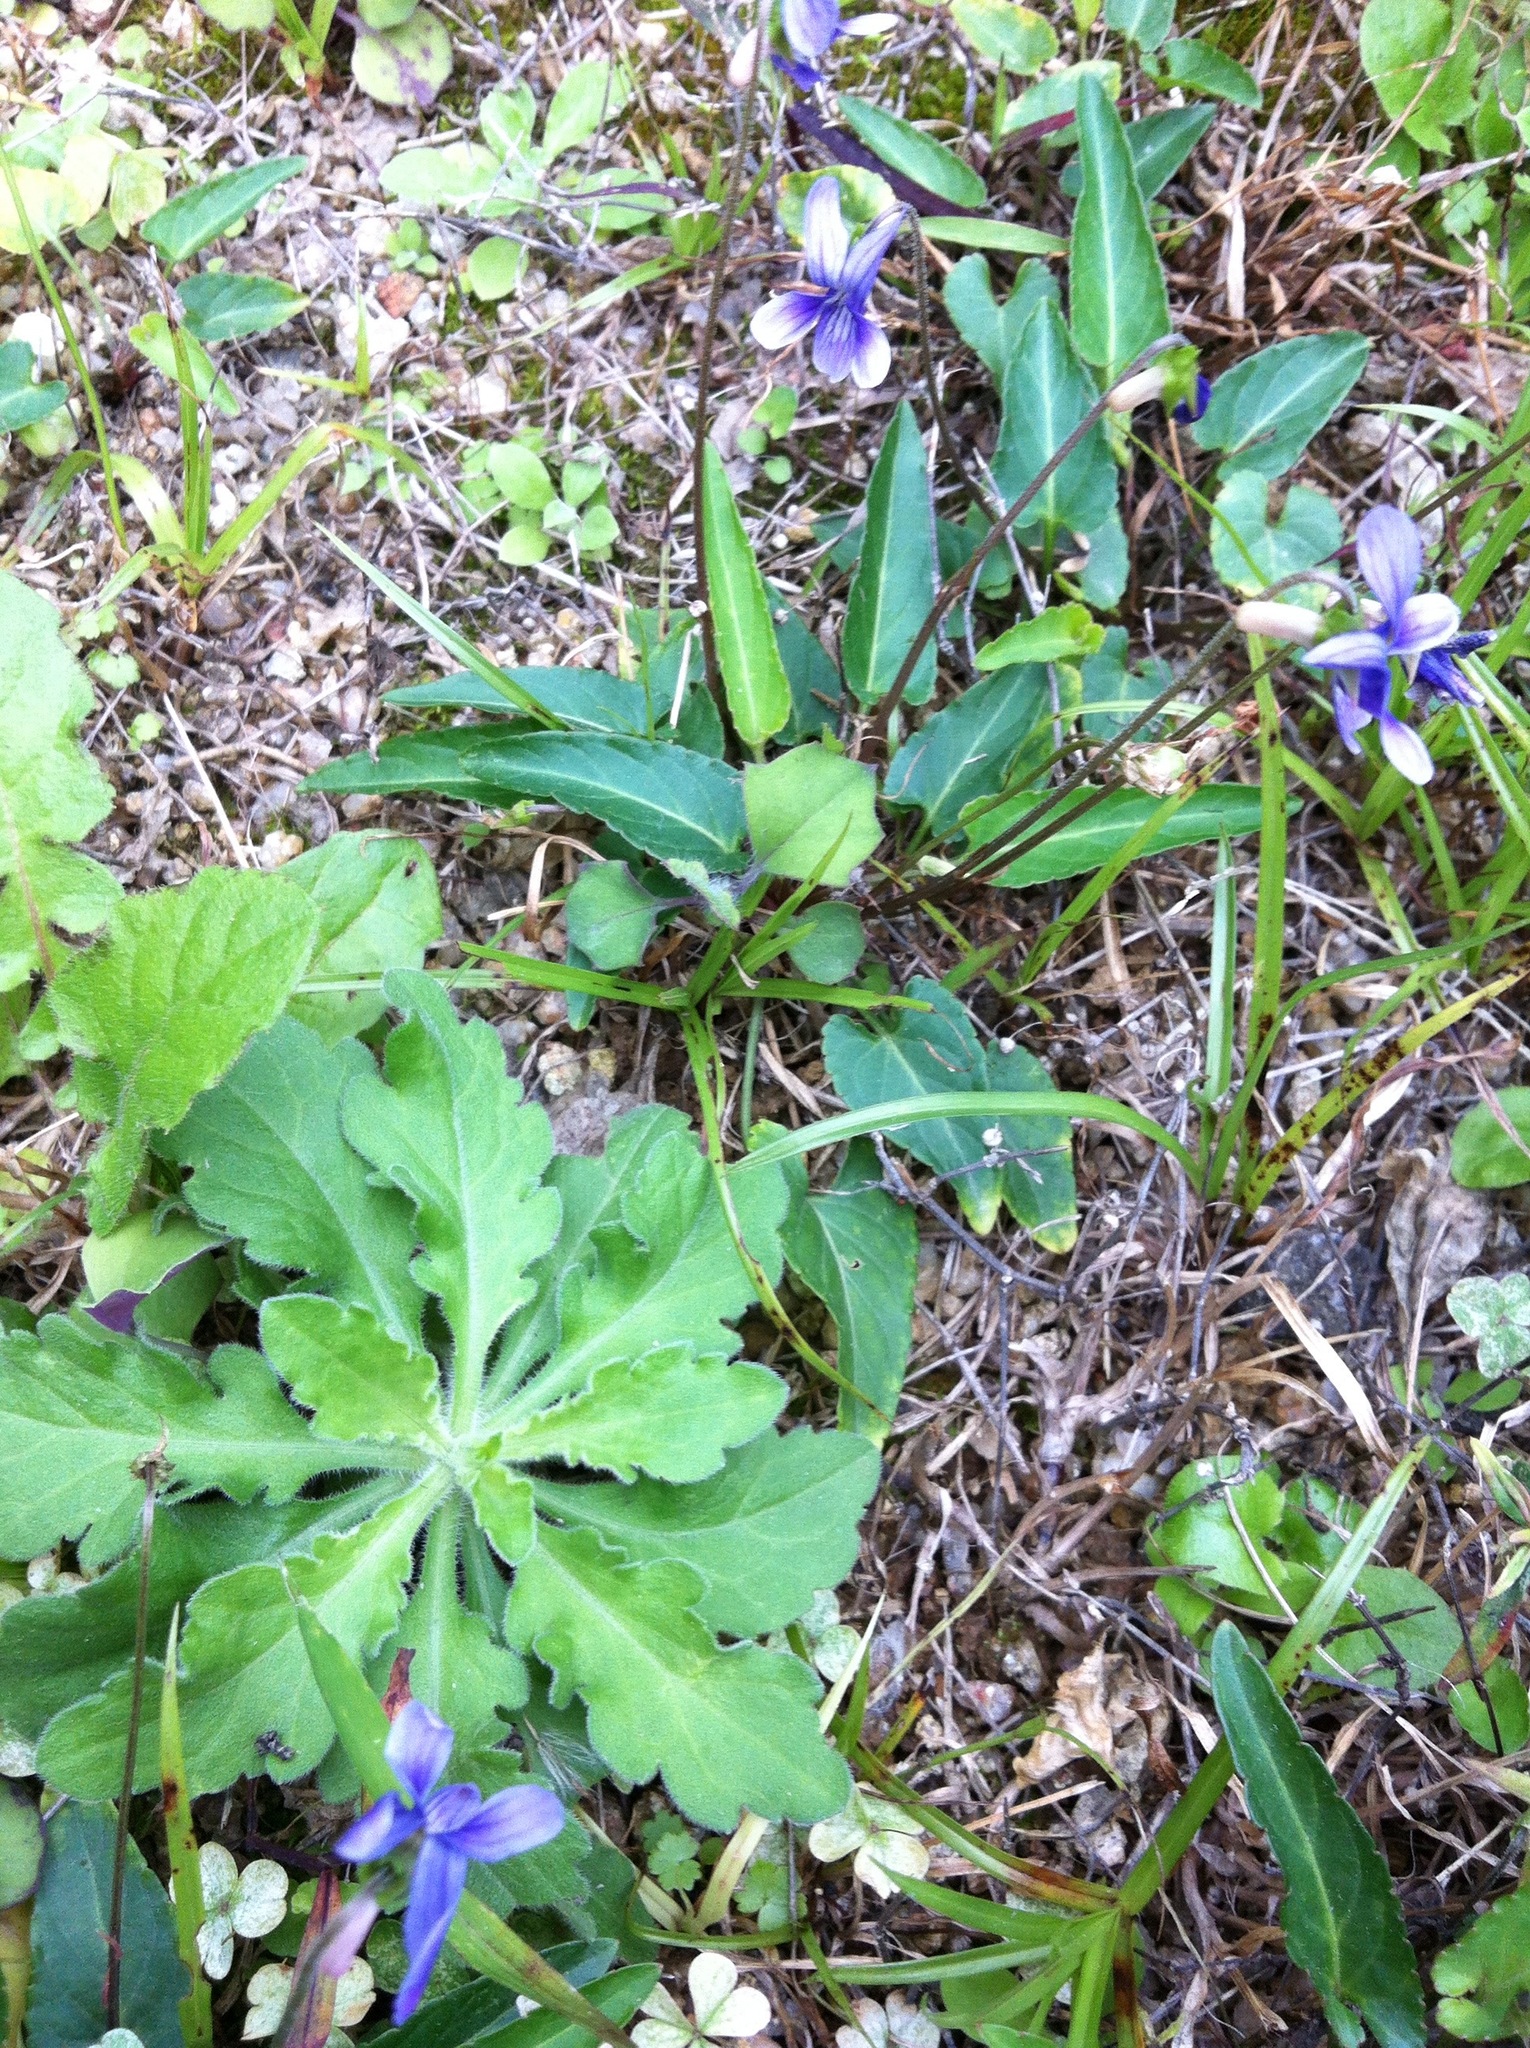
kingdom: Plantae
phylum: Tracheophyta
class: Magnoliopsida
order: Malpighiales
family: Violaceae
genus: Viola
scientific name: Viola inconspicua
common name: Long sepal violet
